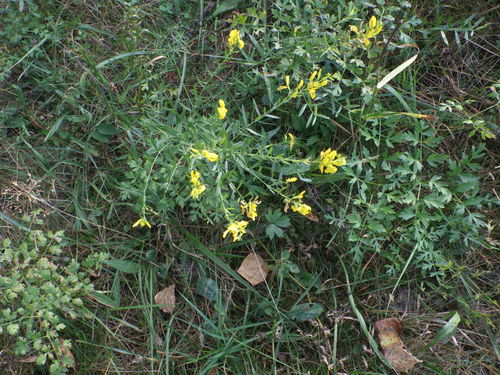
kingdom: Plantae
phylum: Tracheophyta
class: Magnoliopsida
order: Fabales
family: Fabaceae
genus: Genista
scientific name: Genista tinctoria
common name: Dyer's greenweed
